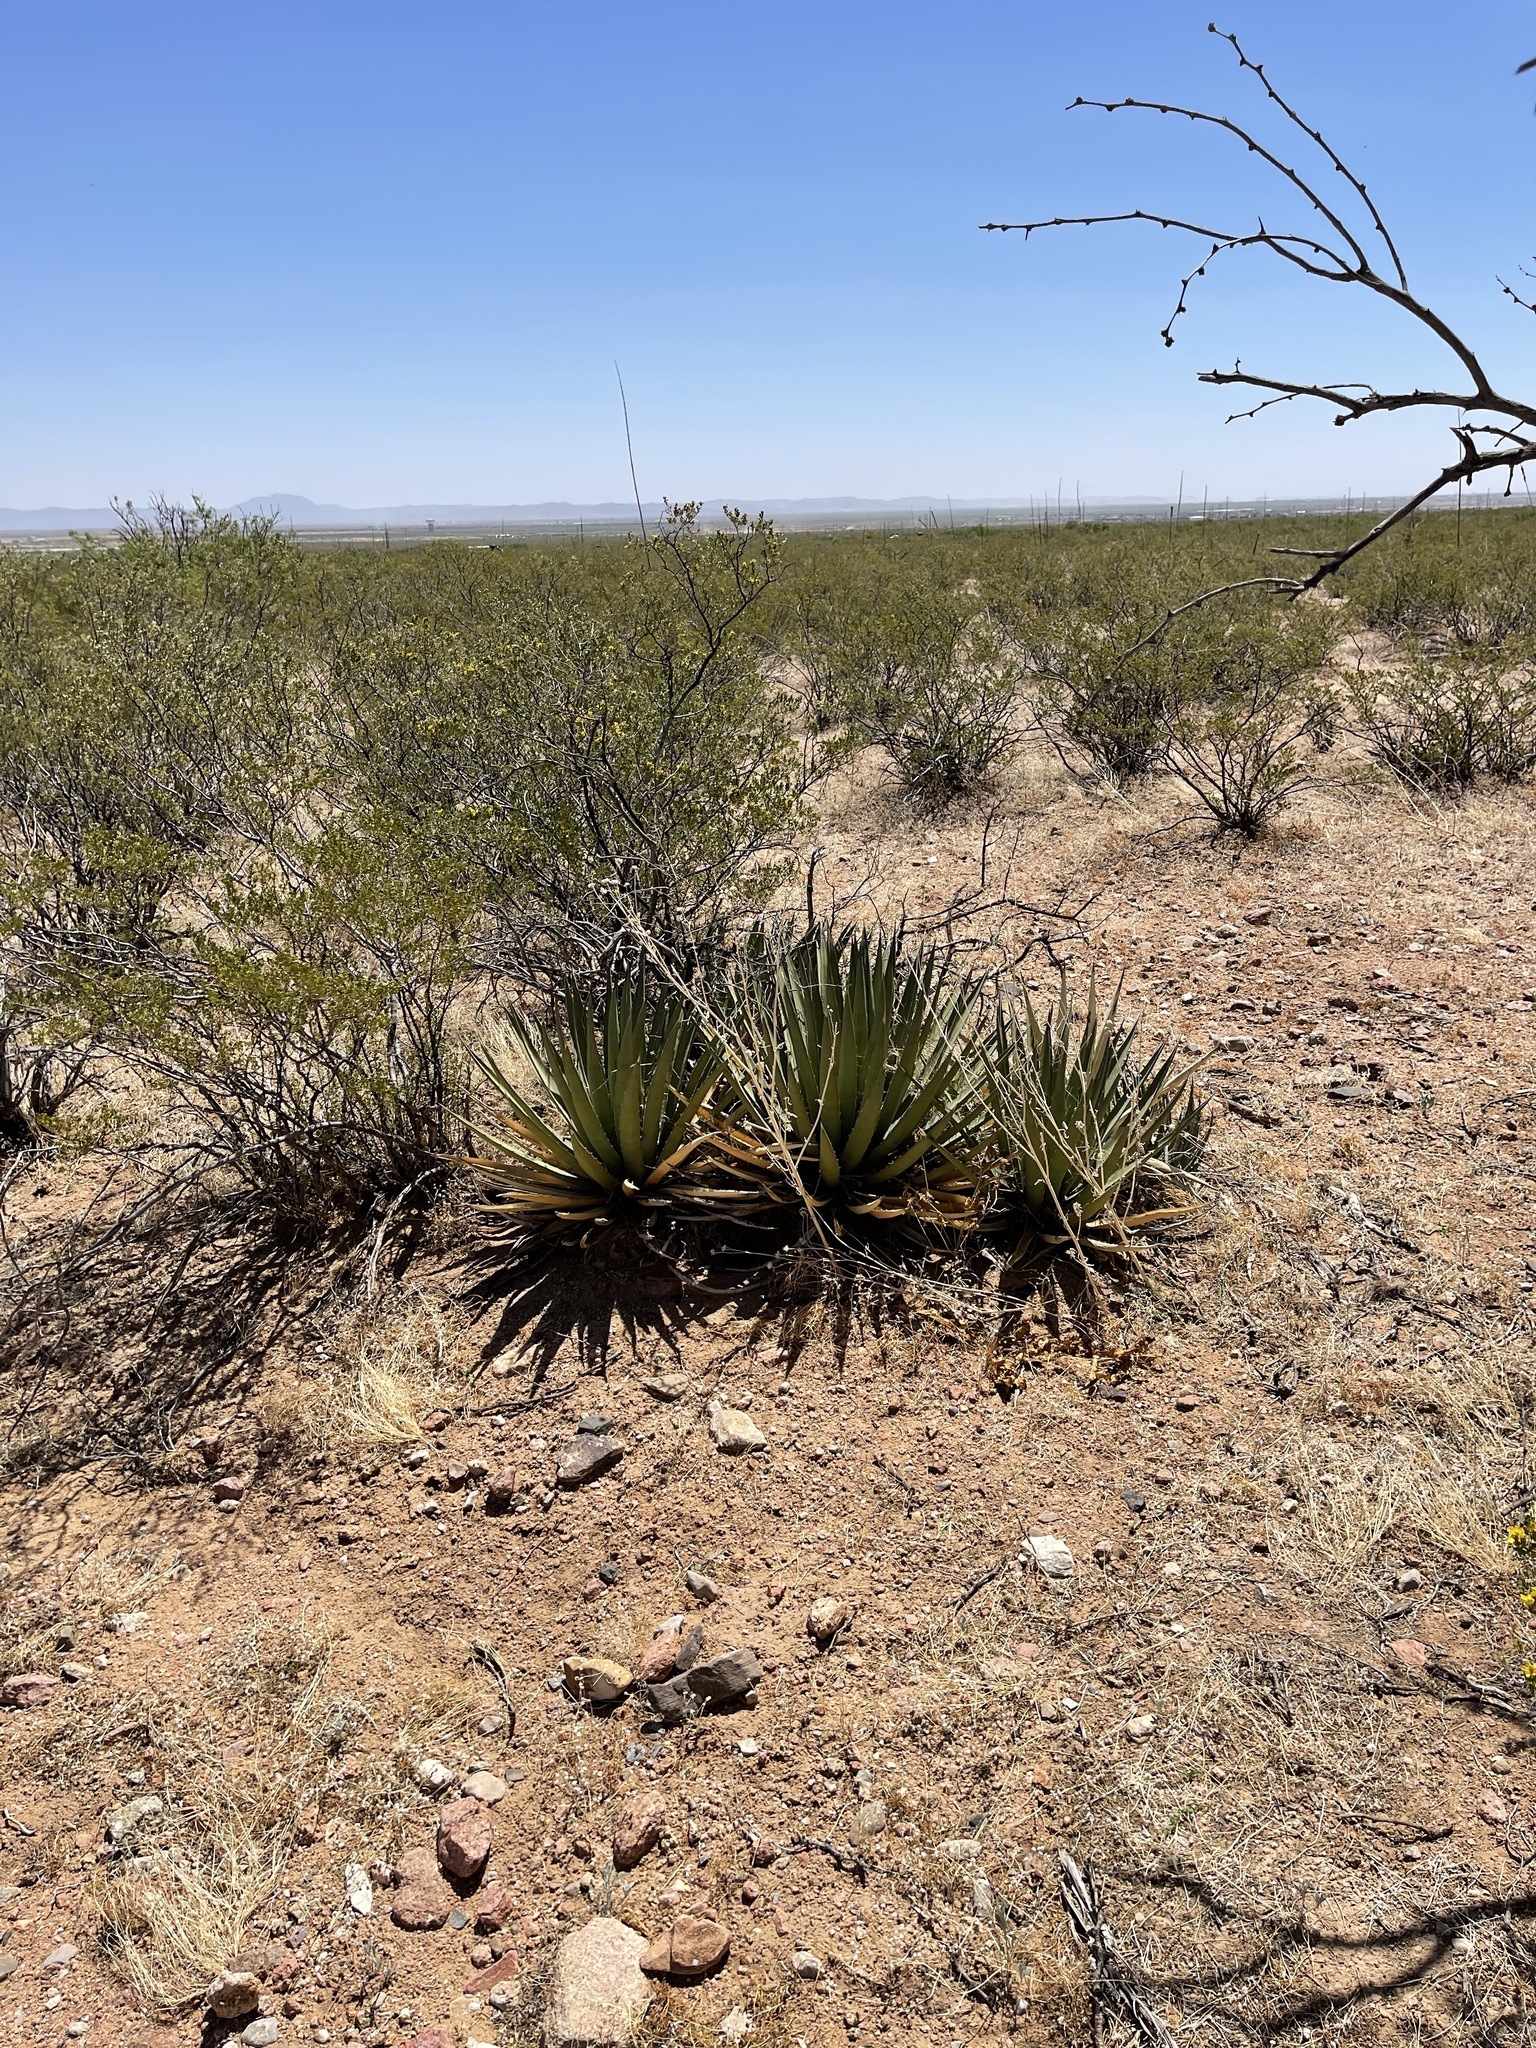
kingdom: Plantae
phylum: Tracheophyta
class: Liliopsida
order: Asparagales
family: Asparagaceae
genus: Agave
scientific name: Agave lechuguilla
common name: Lecheguilla agave
